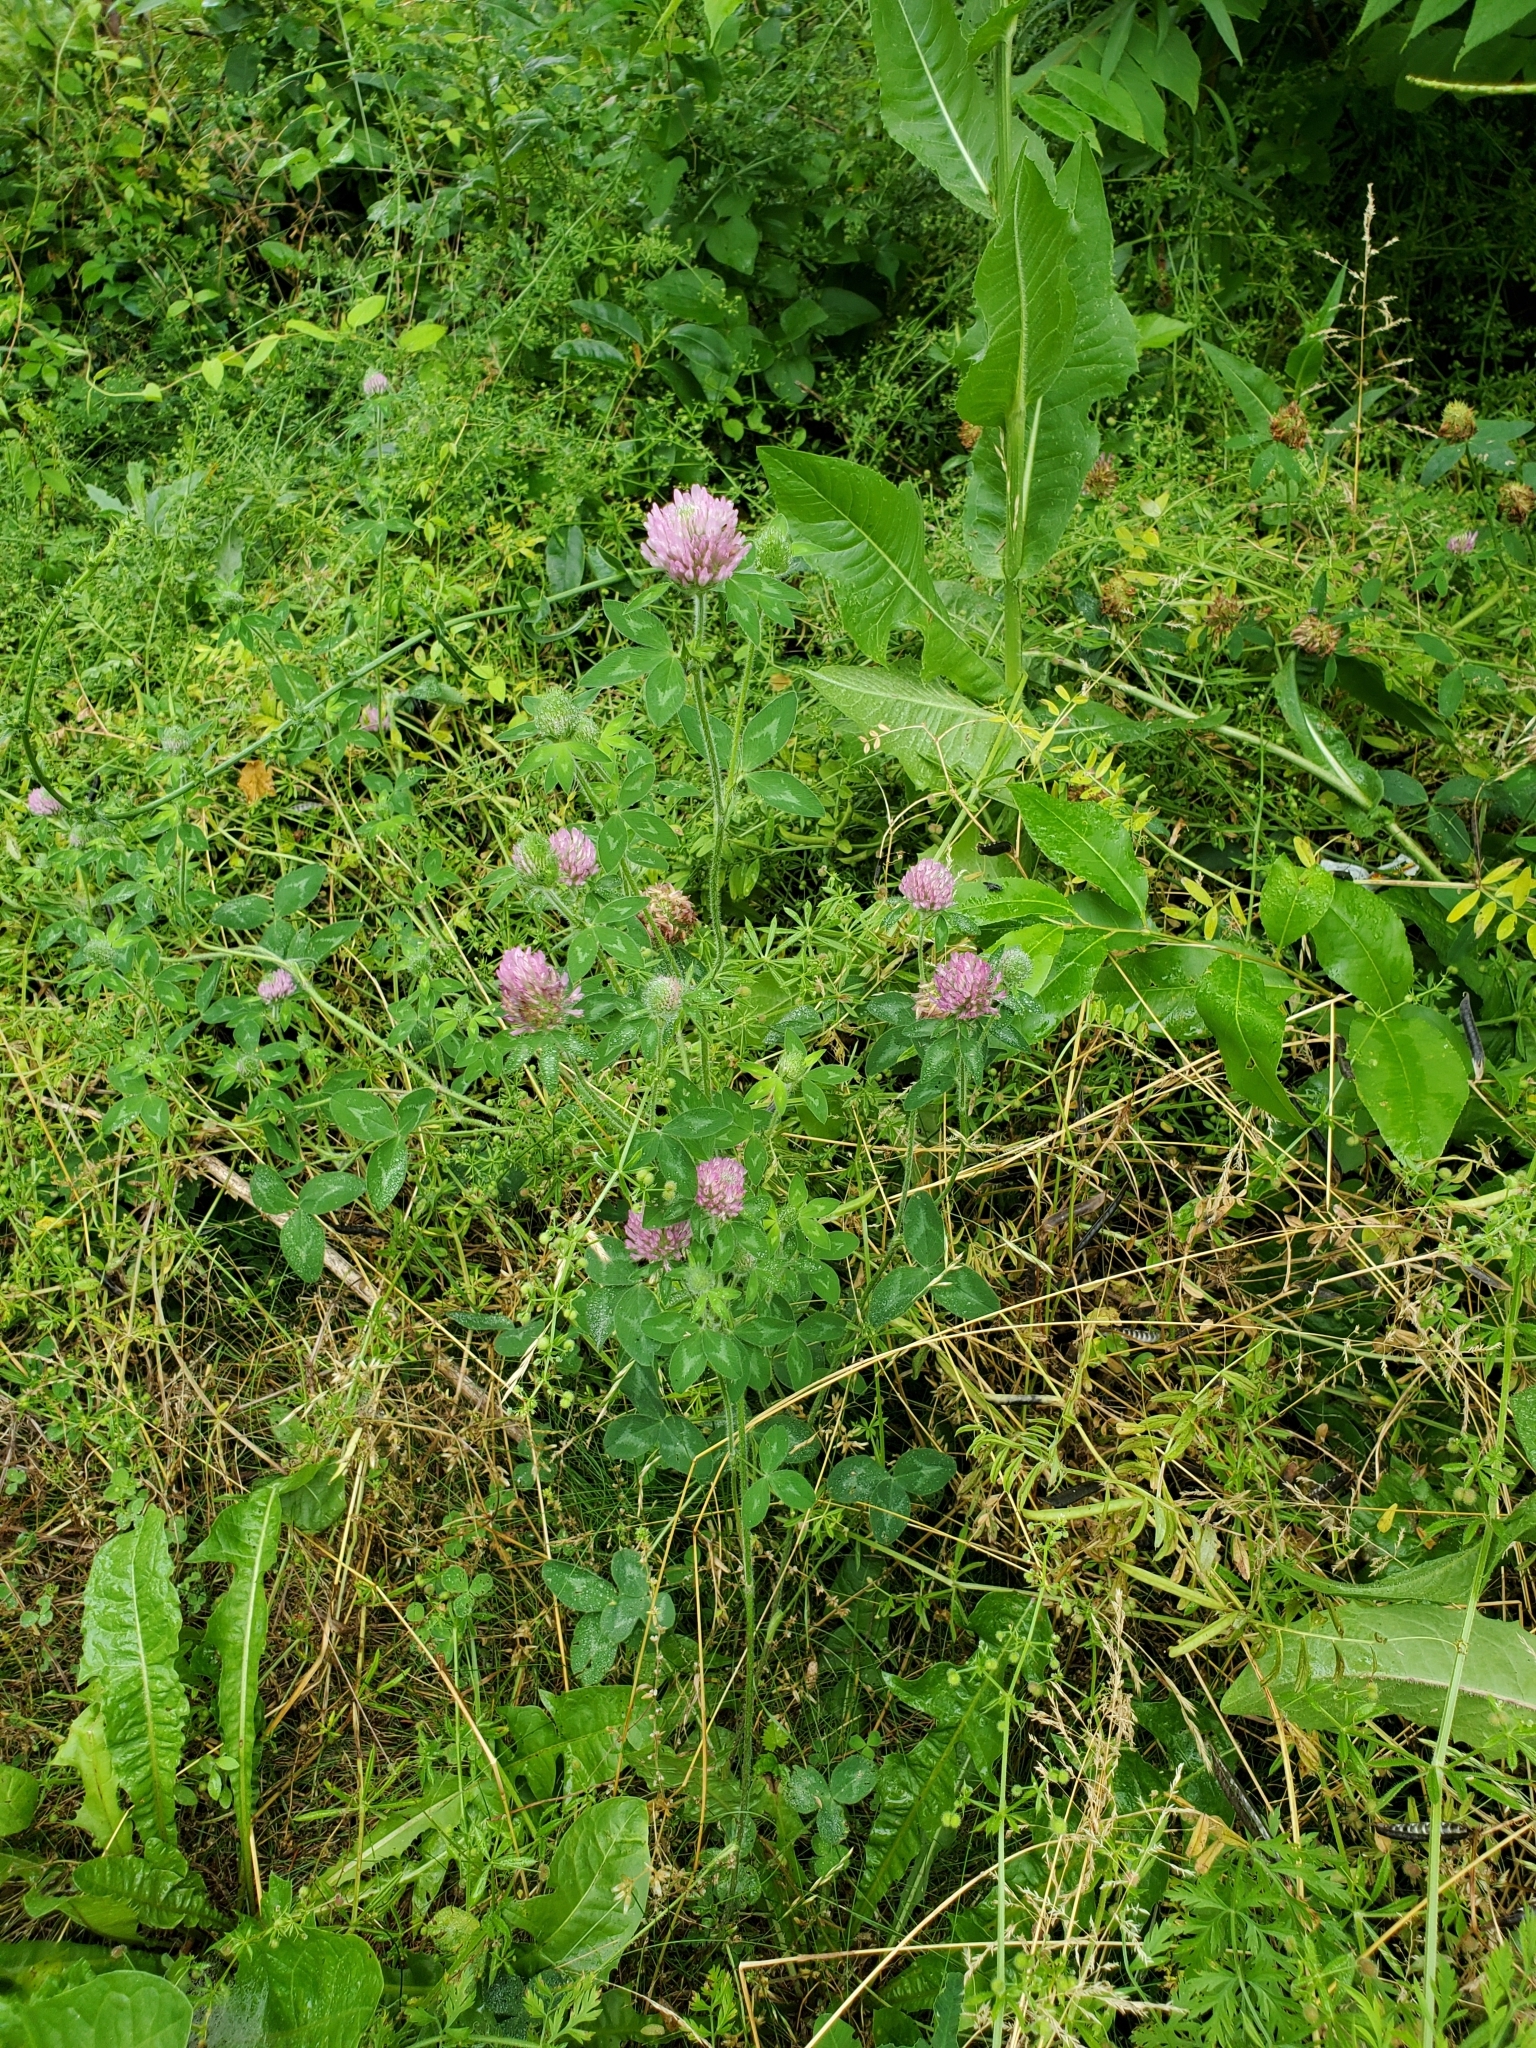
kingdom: Plantae
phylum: Tracheophyta
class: Magnoliopsida
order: Fabales
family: Fabaceae
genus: Trifolium
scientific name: Trifolium pratense
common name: Red clover
